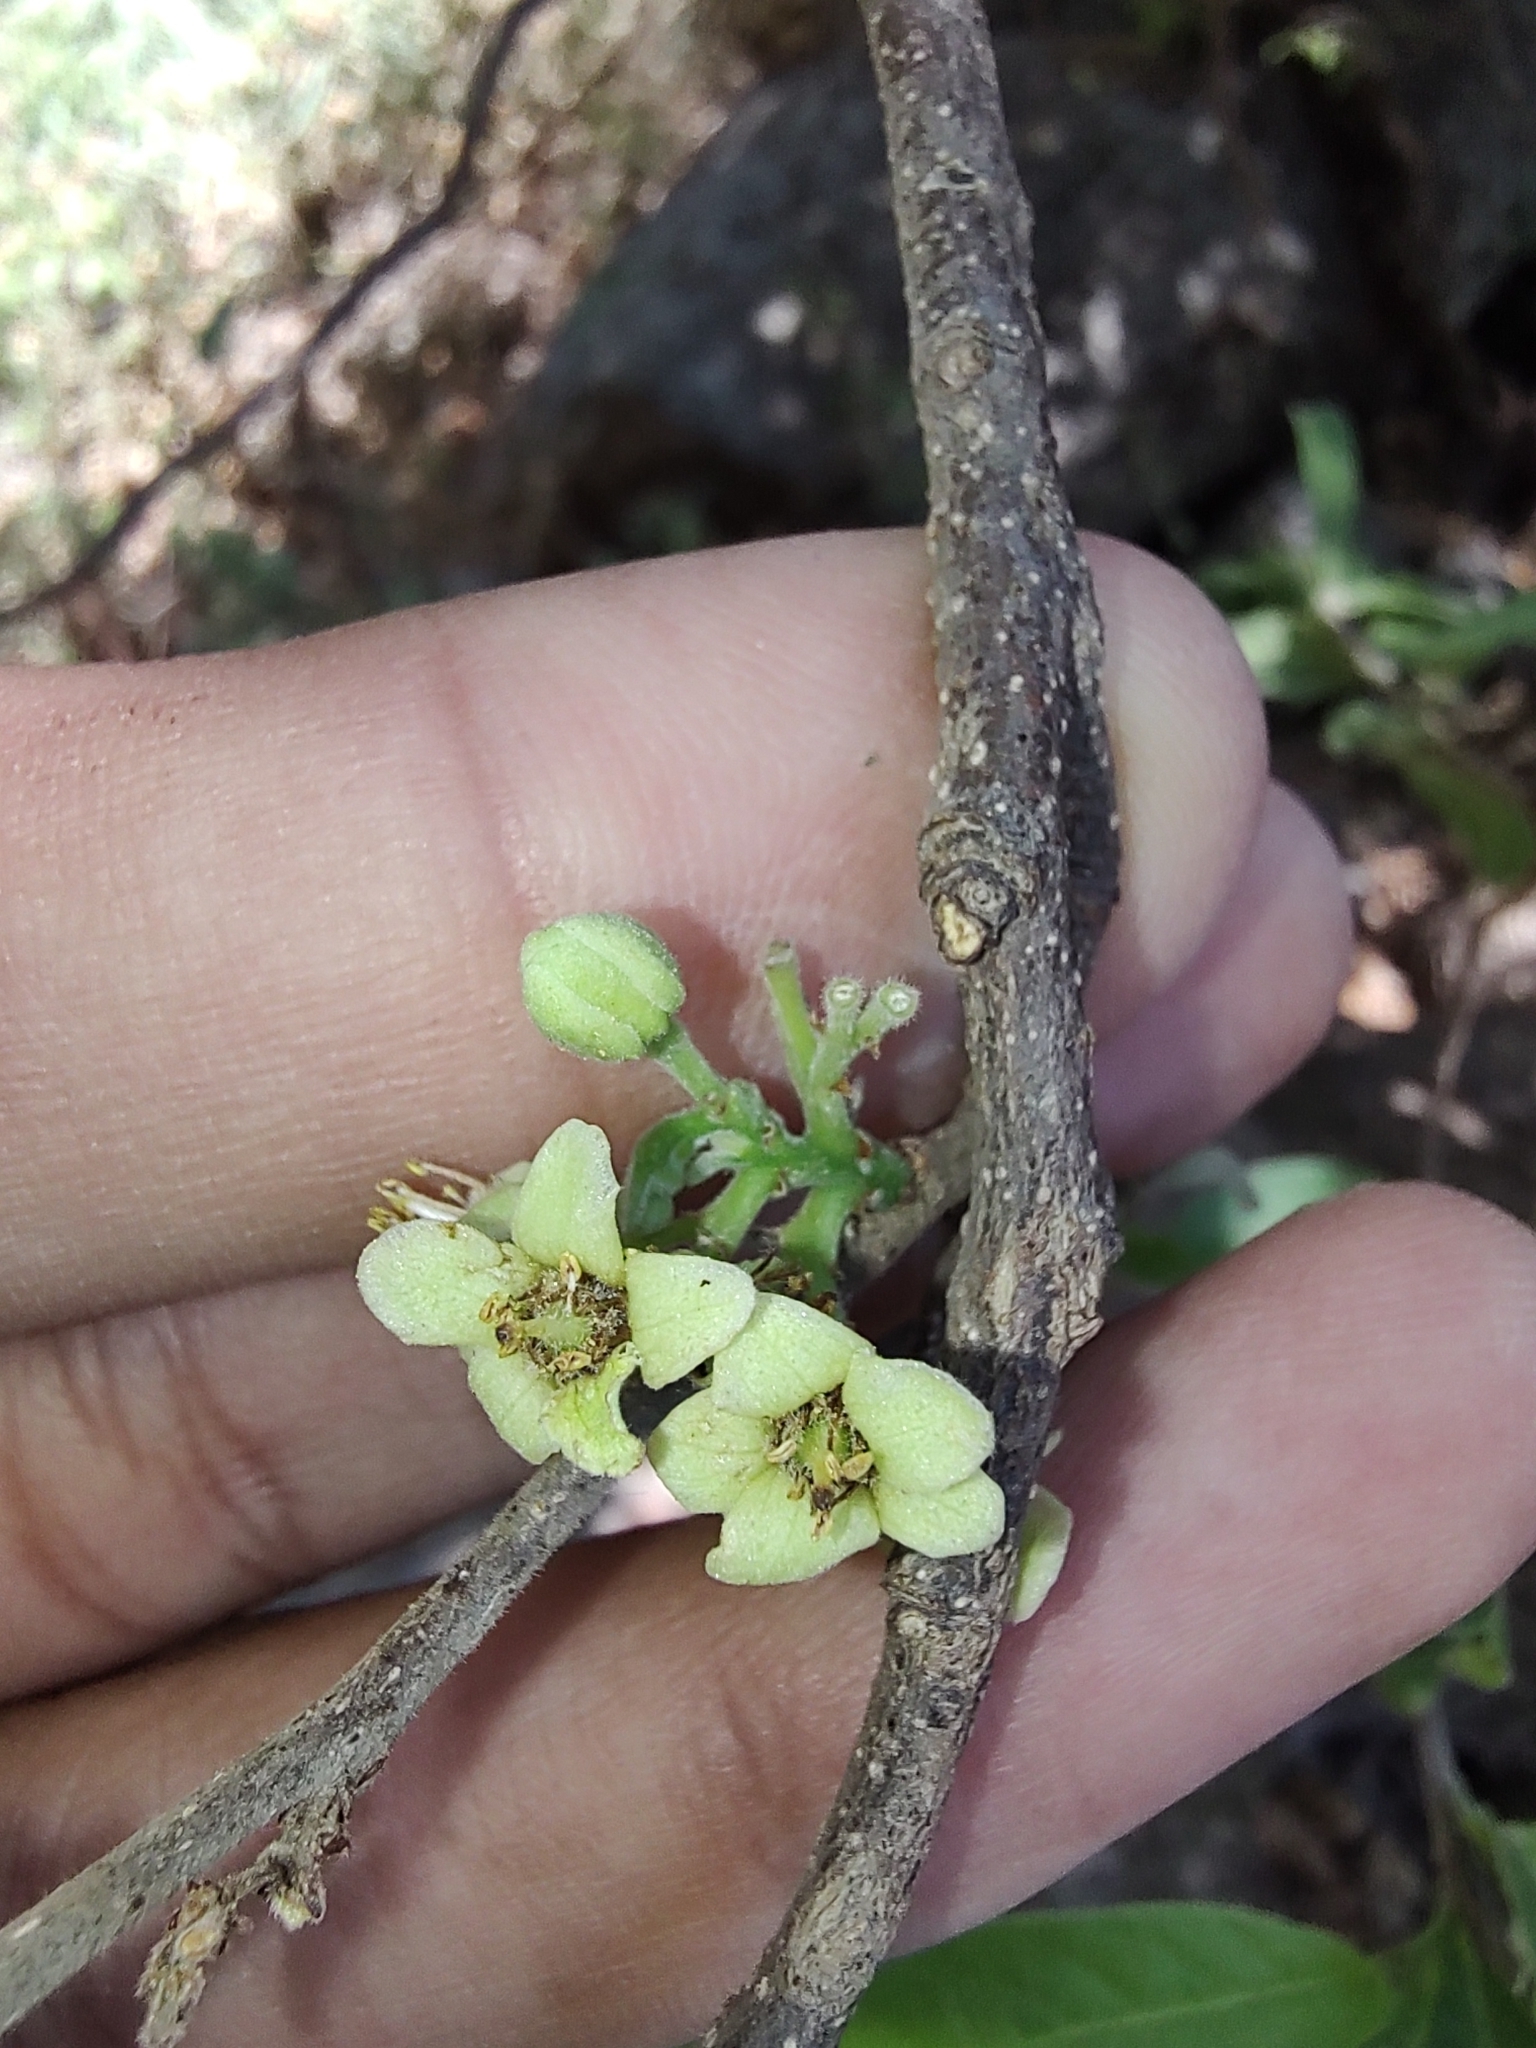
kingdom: Plantae
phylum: Tracheophyta
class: Magnoliopsida
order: Malpighiales
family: Salicaceae
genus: Casearia
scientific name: Casearia corymbosa
